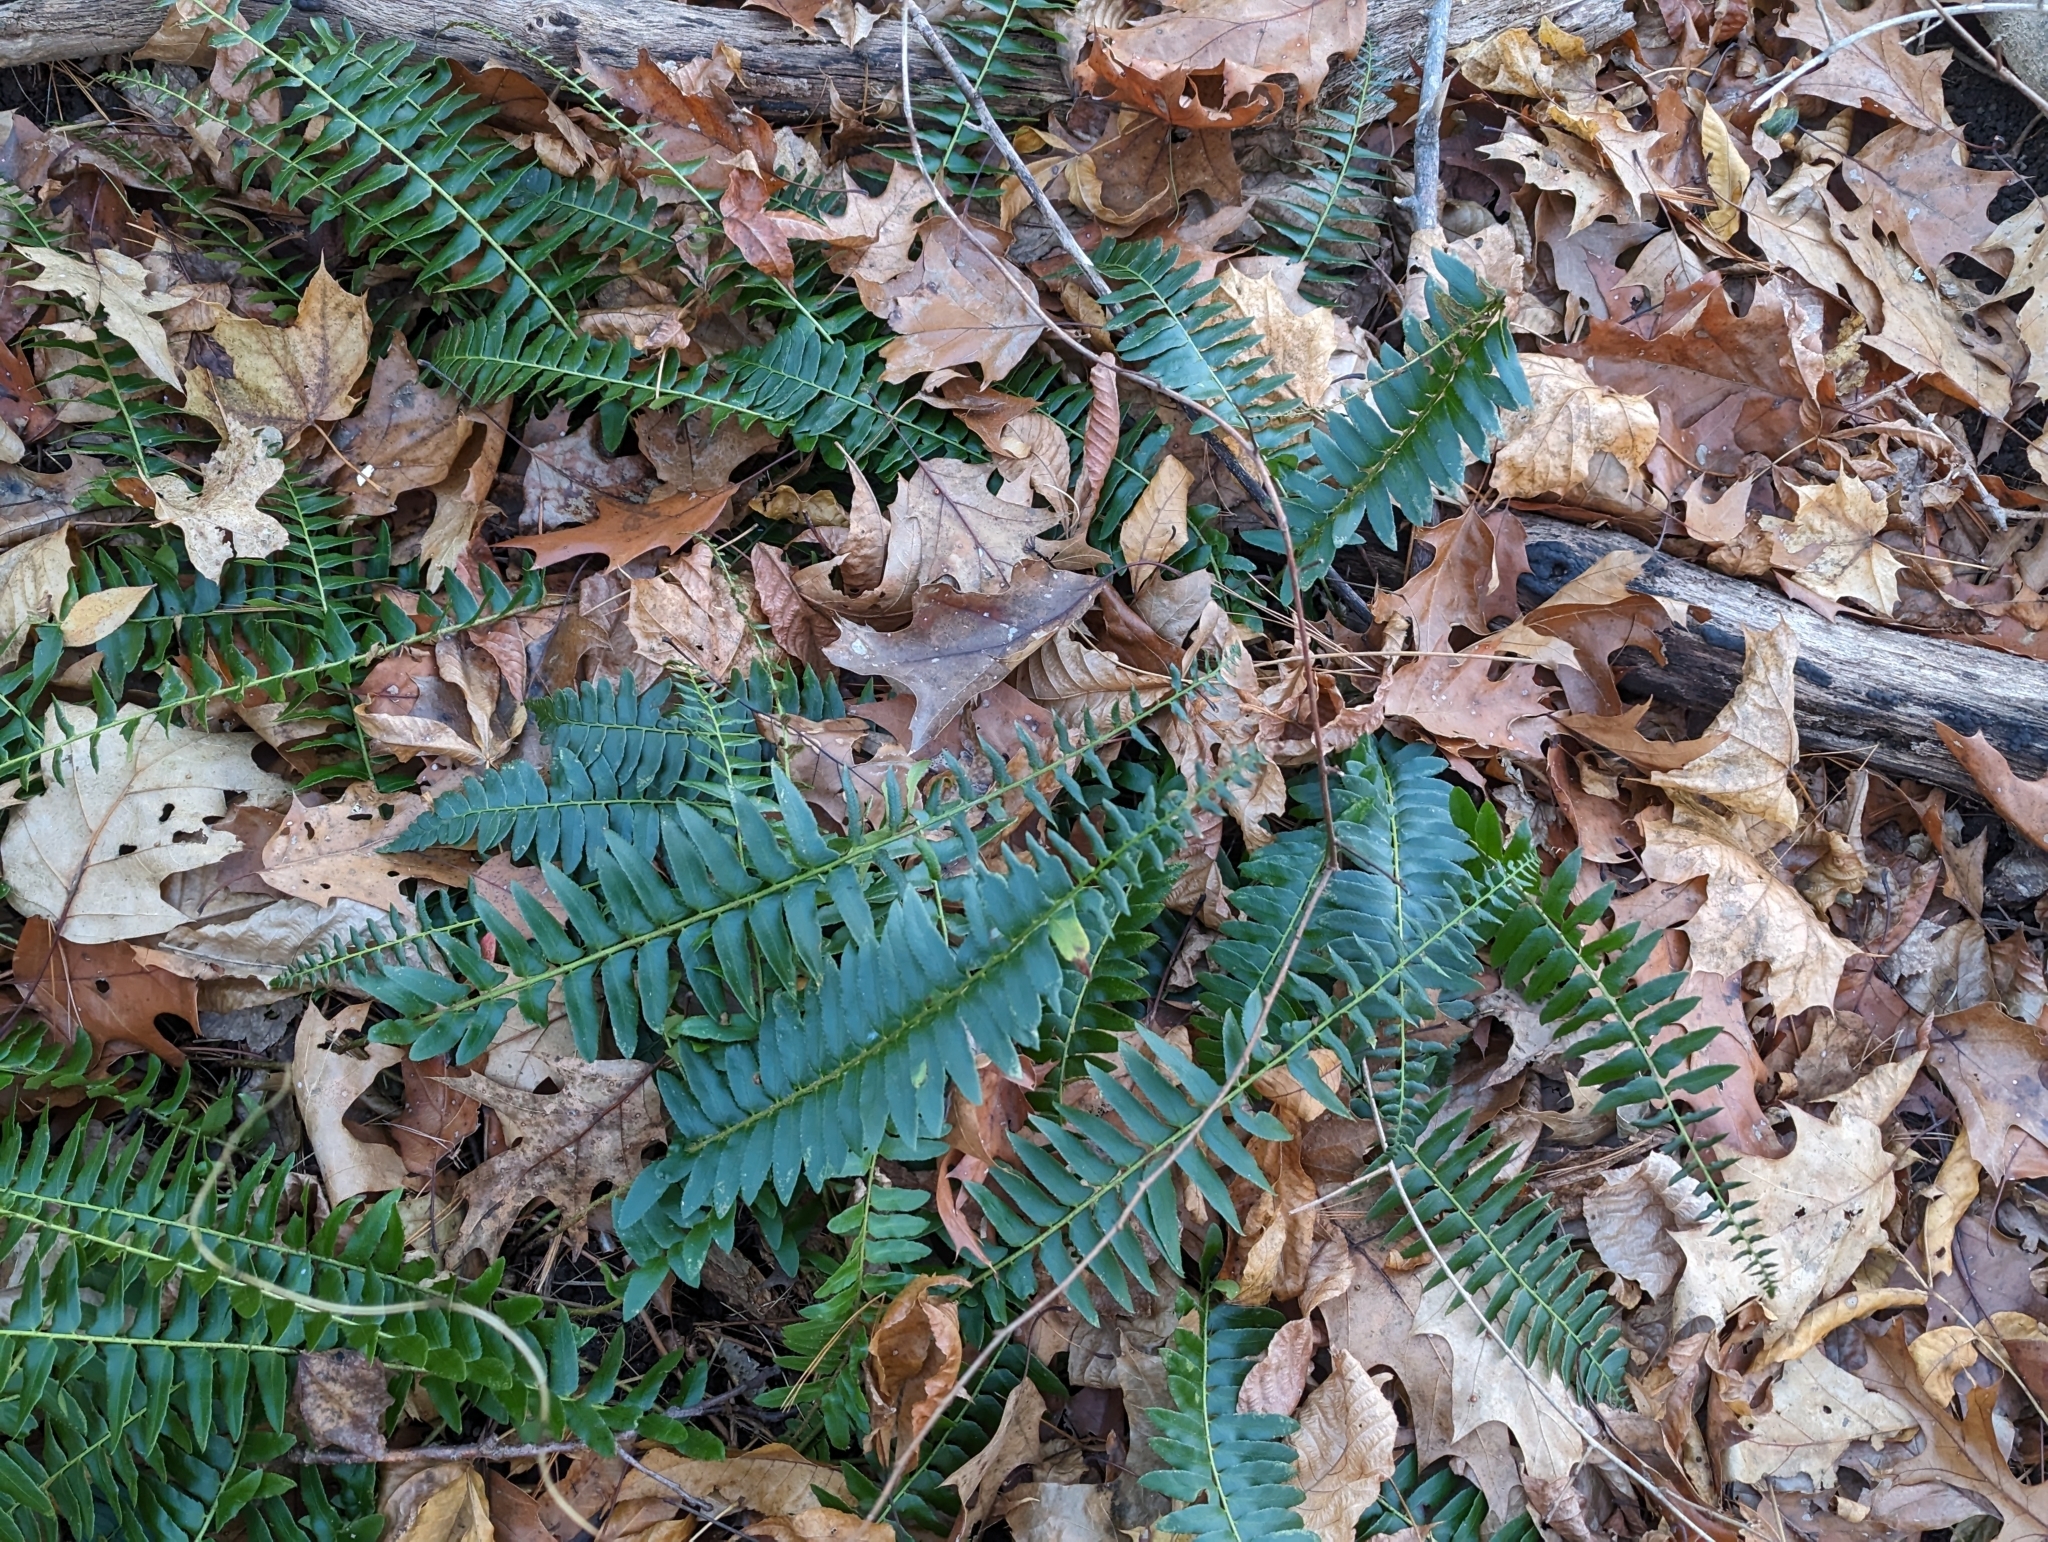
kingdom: Plantae
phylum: Tracheophyta
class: Polypodiopsida
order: Polypodiales
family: Dryopteridaceae
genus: Polystichum
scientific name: Polystichum acrostichoides
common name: Christmas fern
